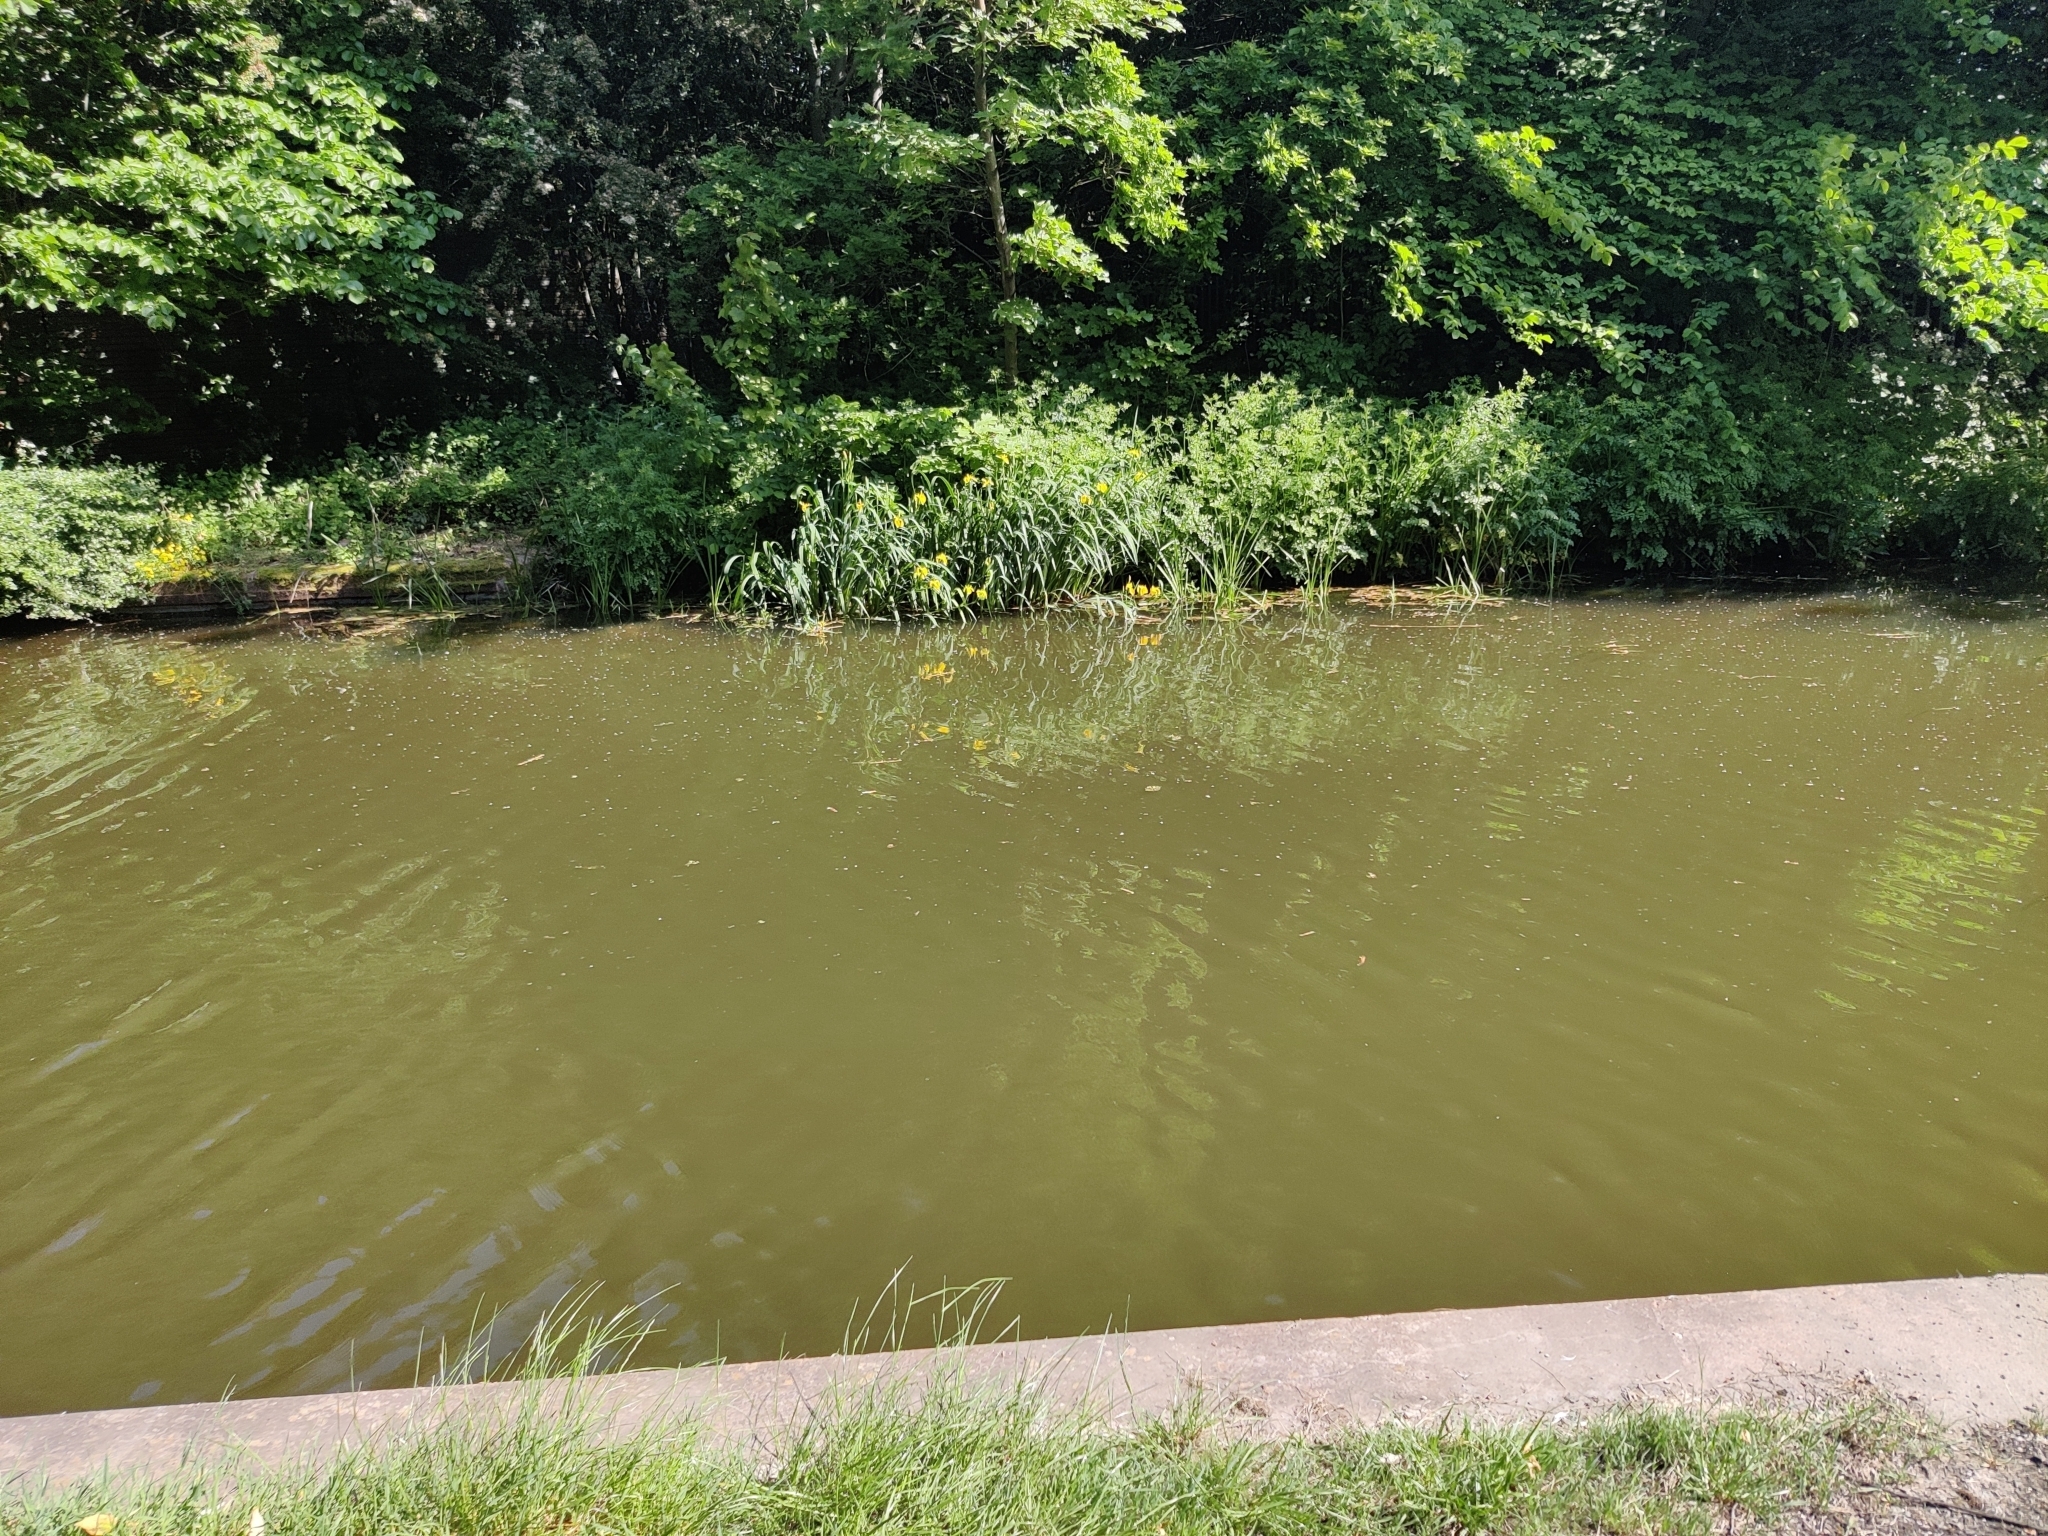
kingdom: Plantae
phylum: Tracheophyta
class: Liliopsida
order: Asparagales
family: Iridaceae
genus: Iris
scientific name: Iris pseudacorus
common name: Yellow flag
